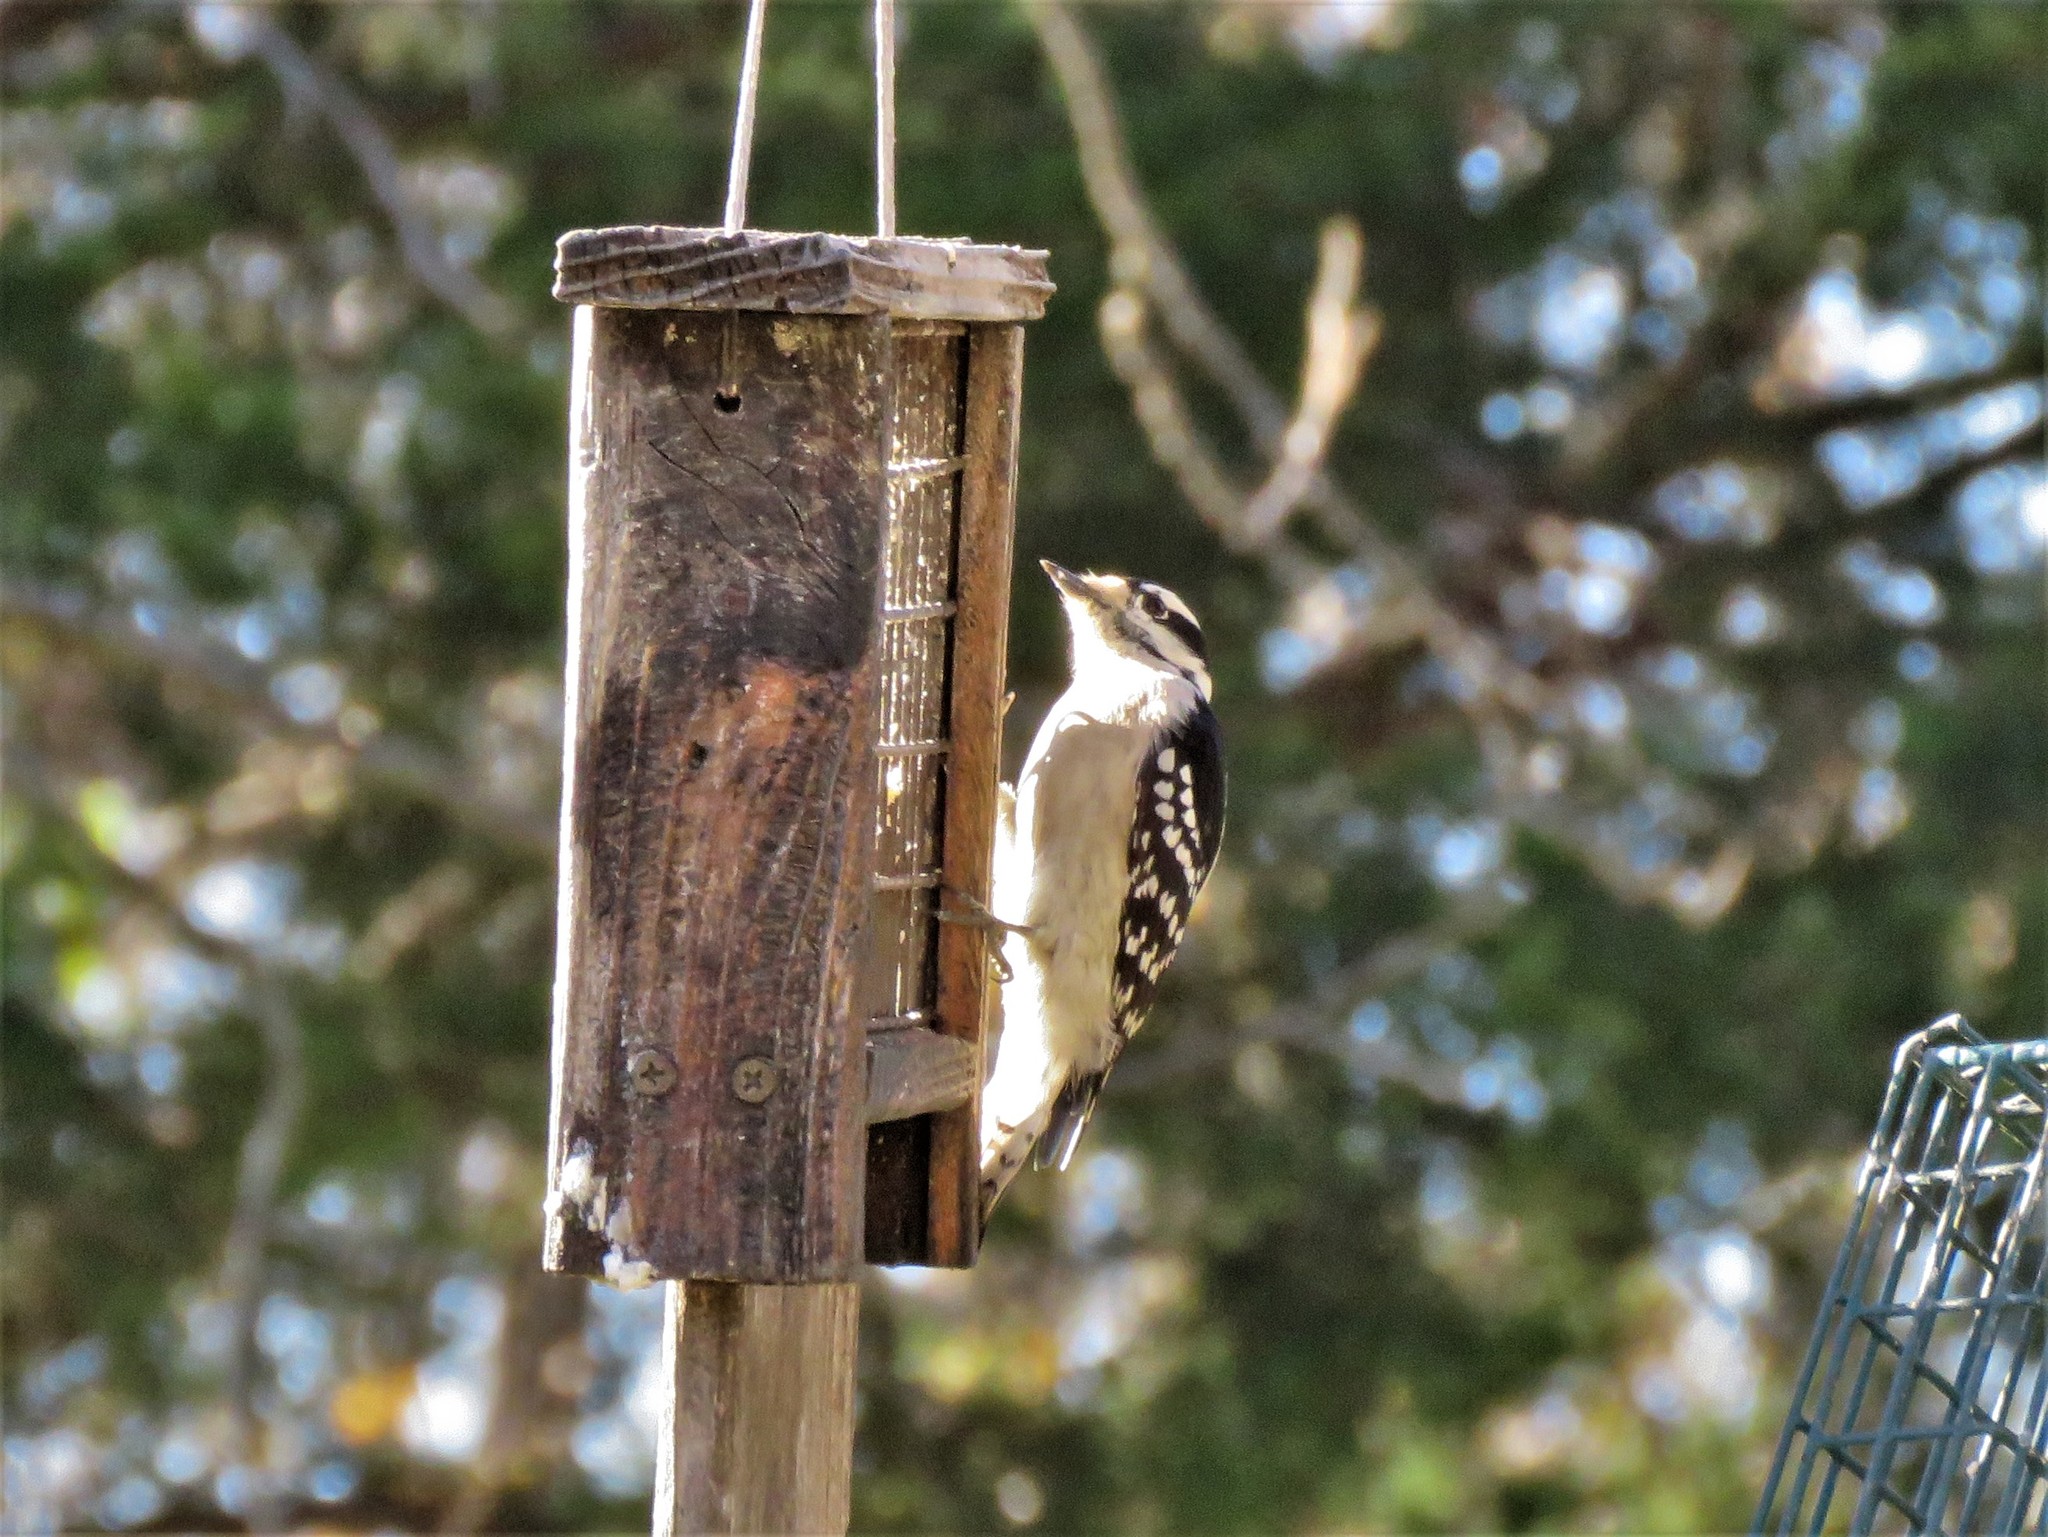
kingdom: Animalia
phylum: Chordata
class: Aves
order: Piciformes
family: Picidae
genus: Dryobates
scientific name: Dryobates pubescens
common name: Downy woodpecker
